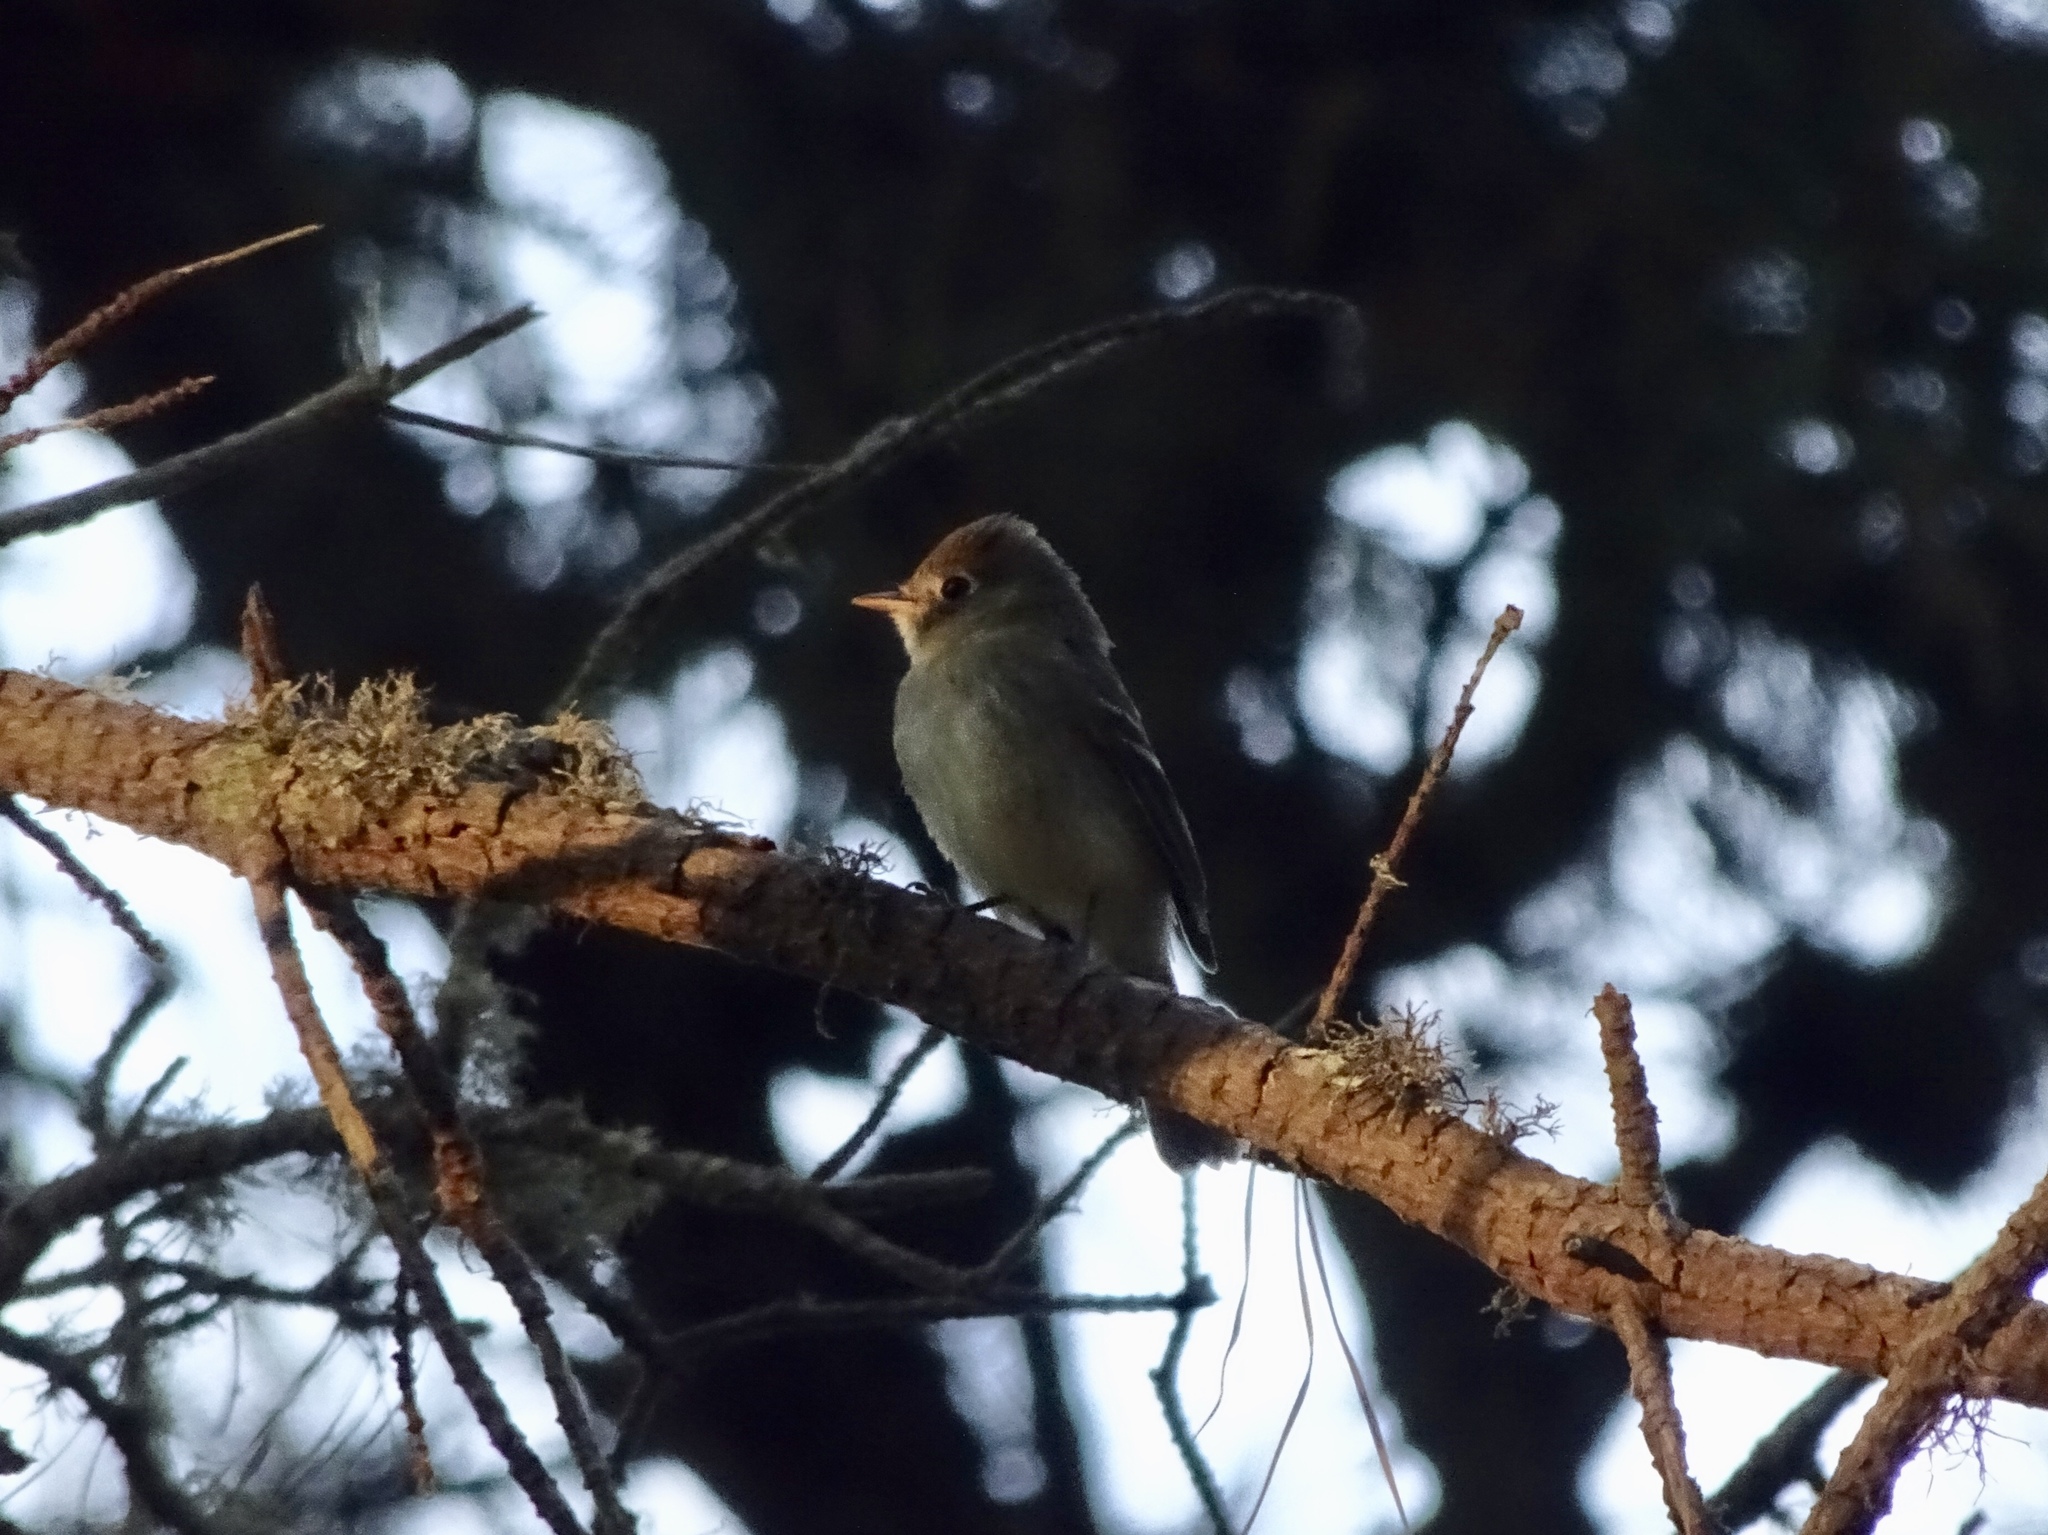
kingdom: Animalia
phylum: Chordata
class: Aves
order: Passeriformes
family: Tyrannidae
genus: Empidonax
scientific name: Empidonax difficilis
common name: Pacific-slope flycatcher
